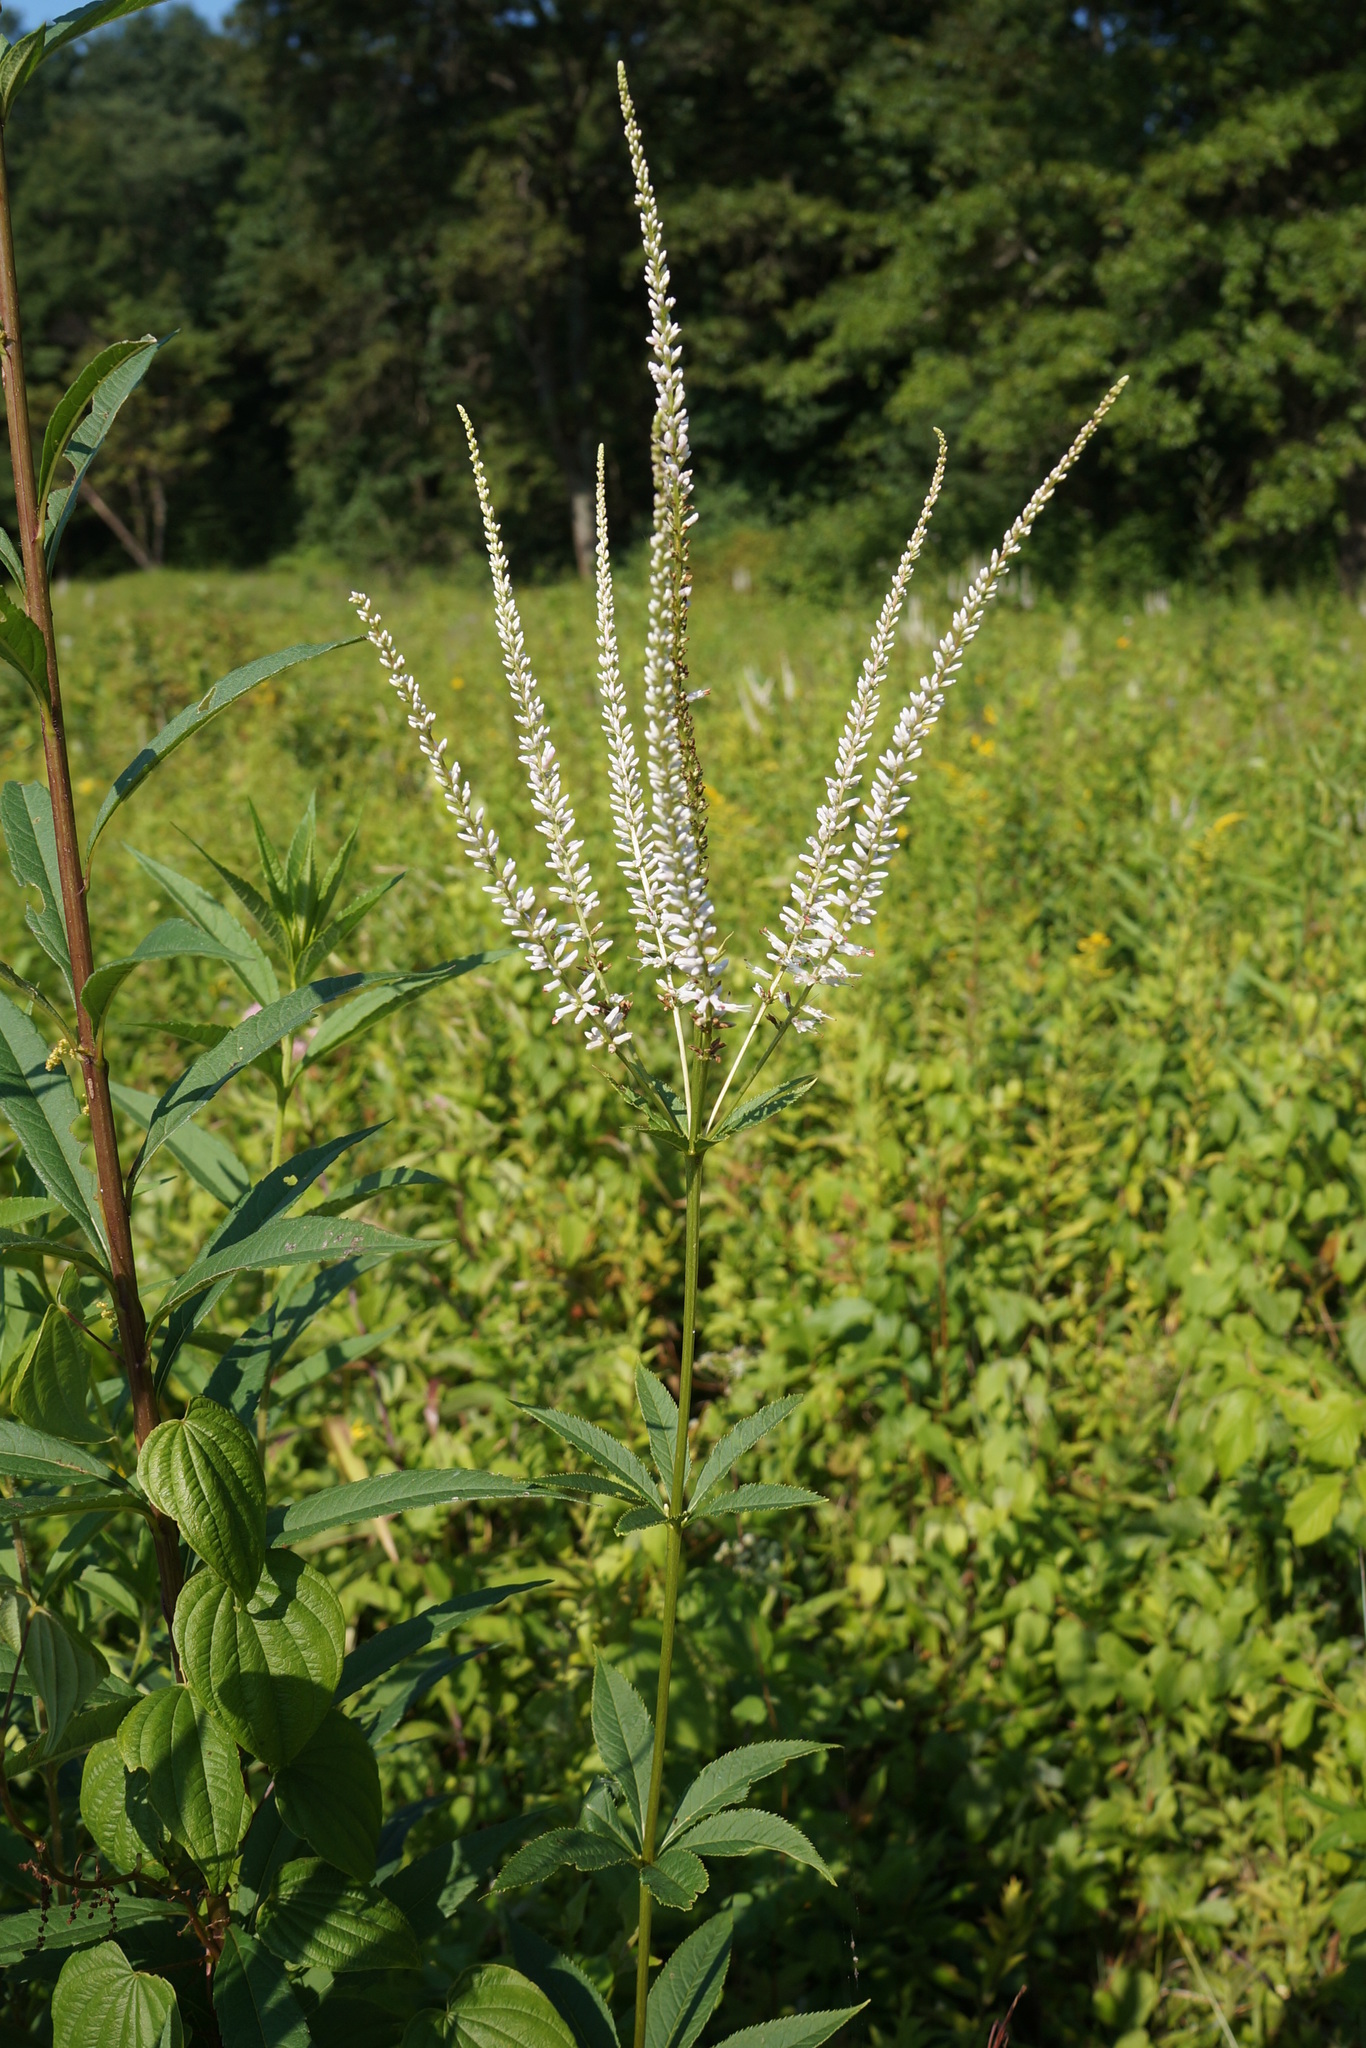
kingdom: Plantae
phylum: Tracheophyta
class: Magnoliopsida
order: Lamiales
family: Plantaginaceae
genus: Veronicastrum
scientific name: Veronicastrum virginicum
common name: Blackroot
